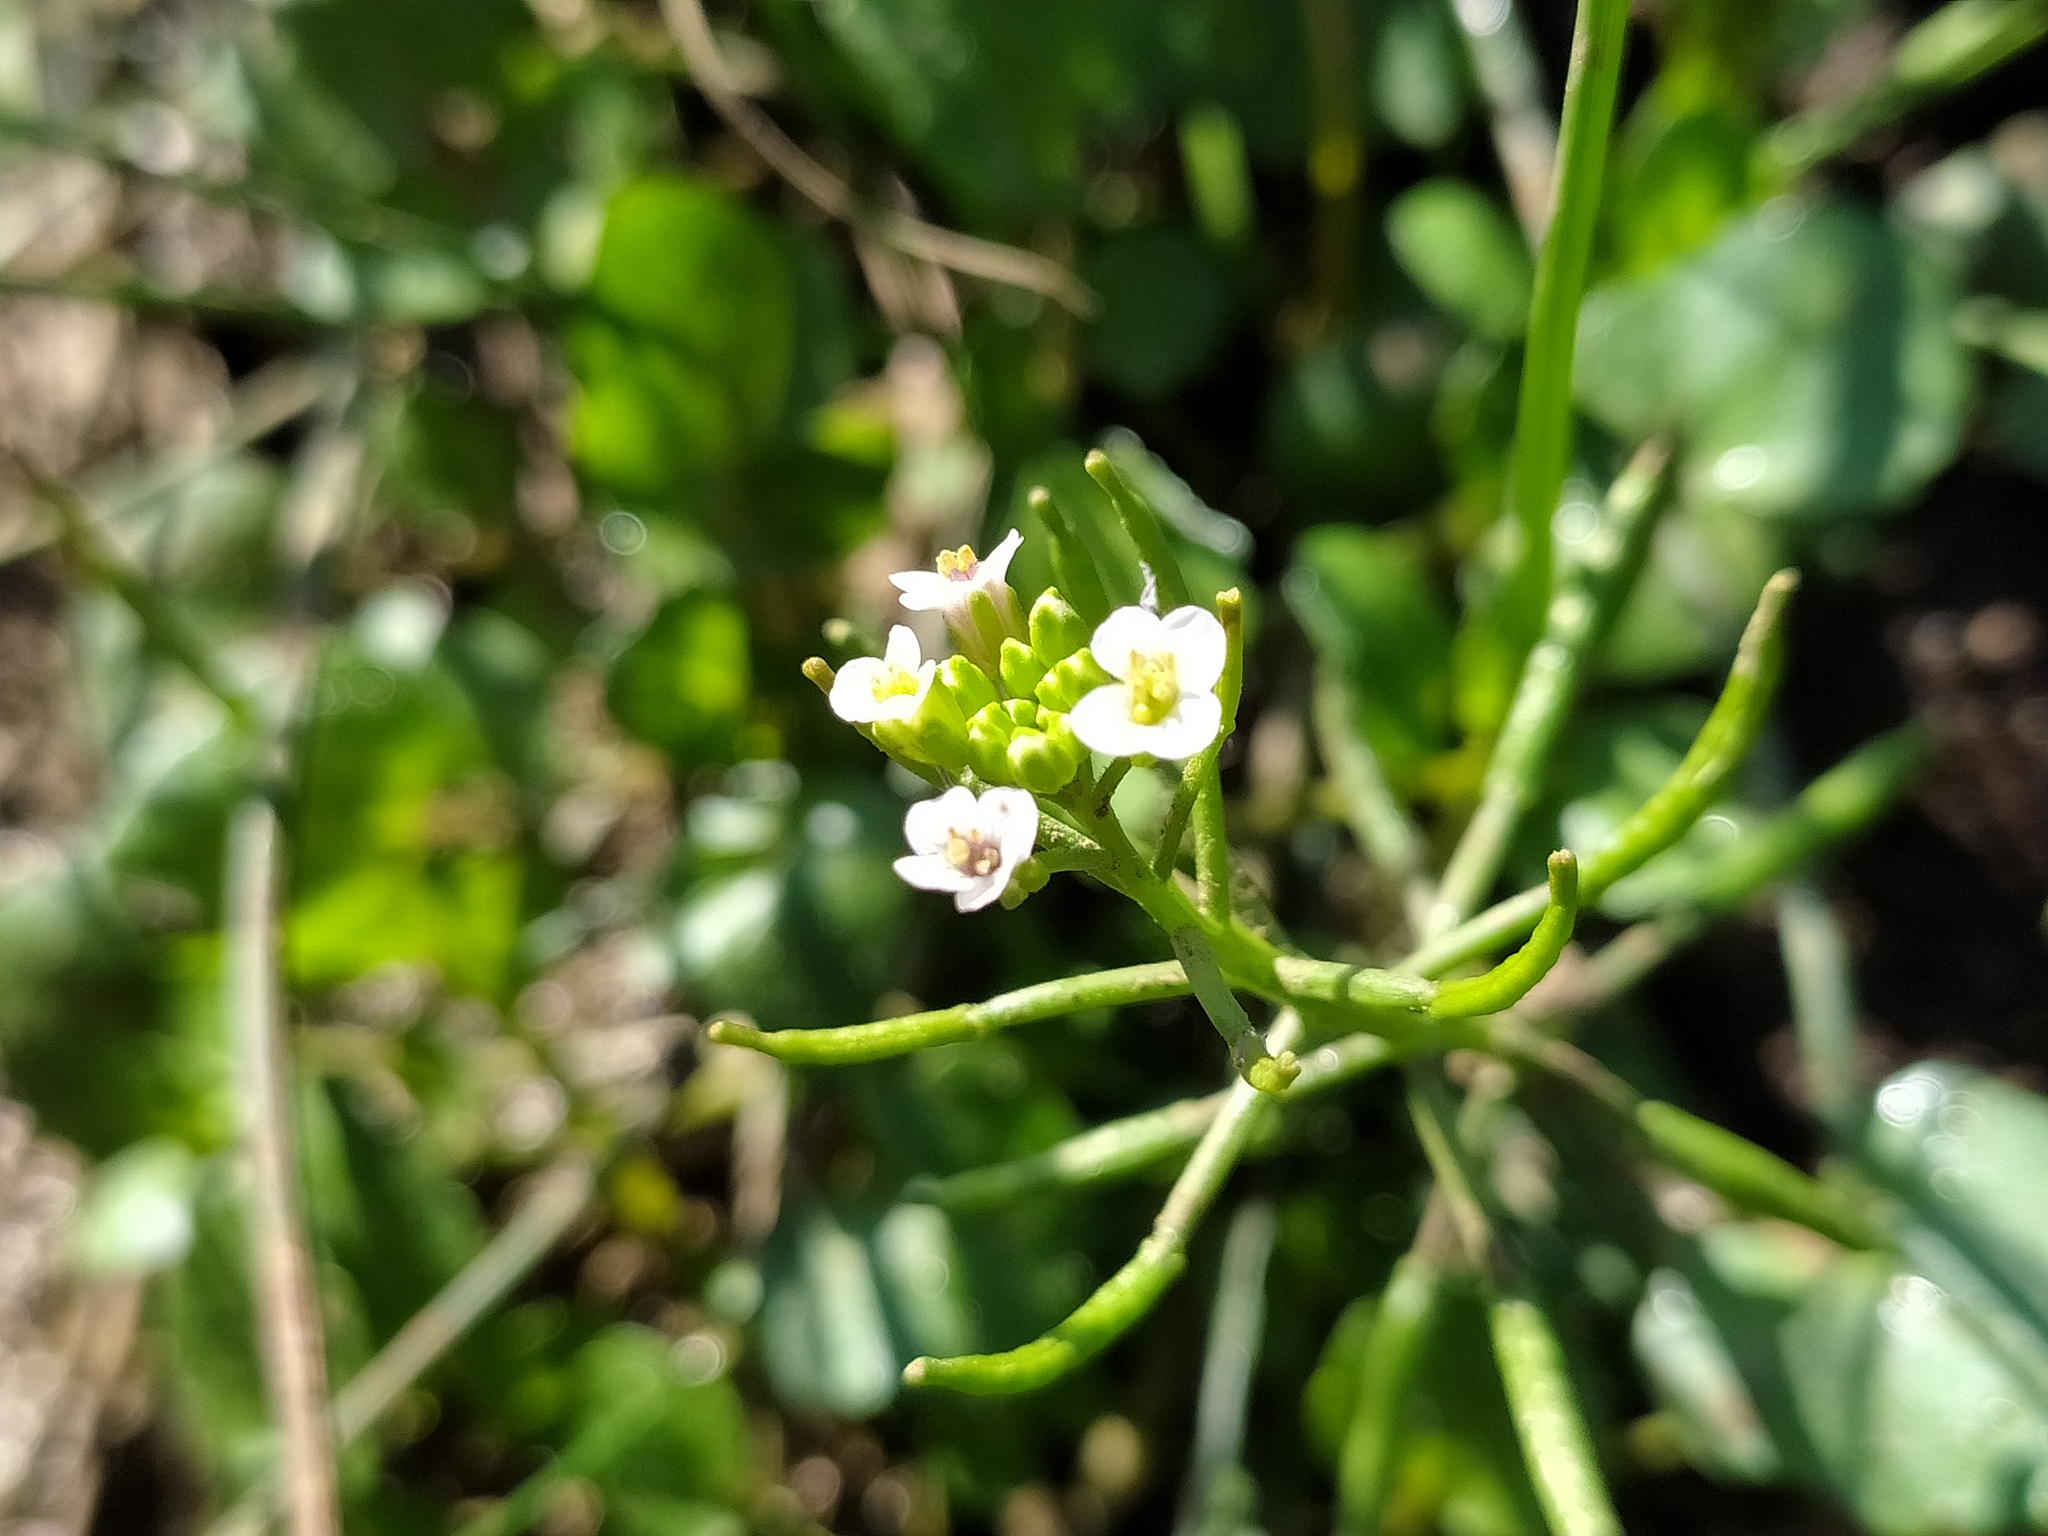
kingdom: Plantae
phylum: Tracheophyta
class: Magnoliopsida
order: Brassicales
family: Brassicaceae
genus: Nasturtium
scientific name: Nasturtium officinale
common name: Watercress
